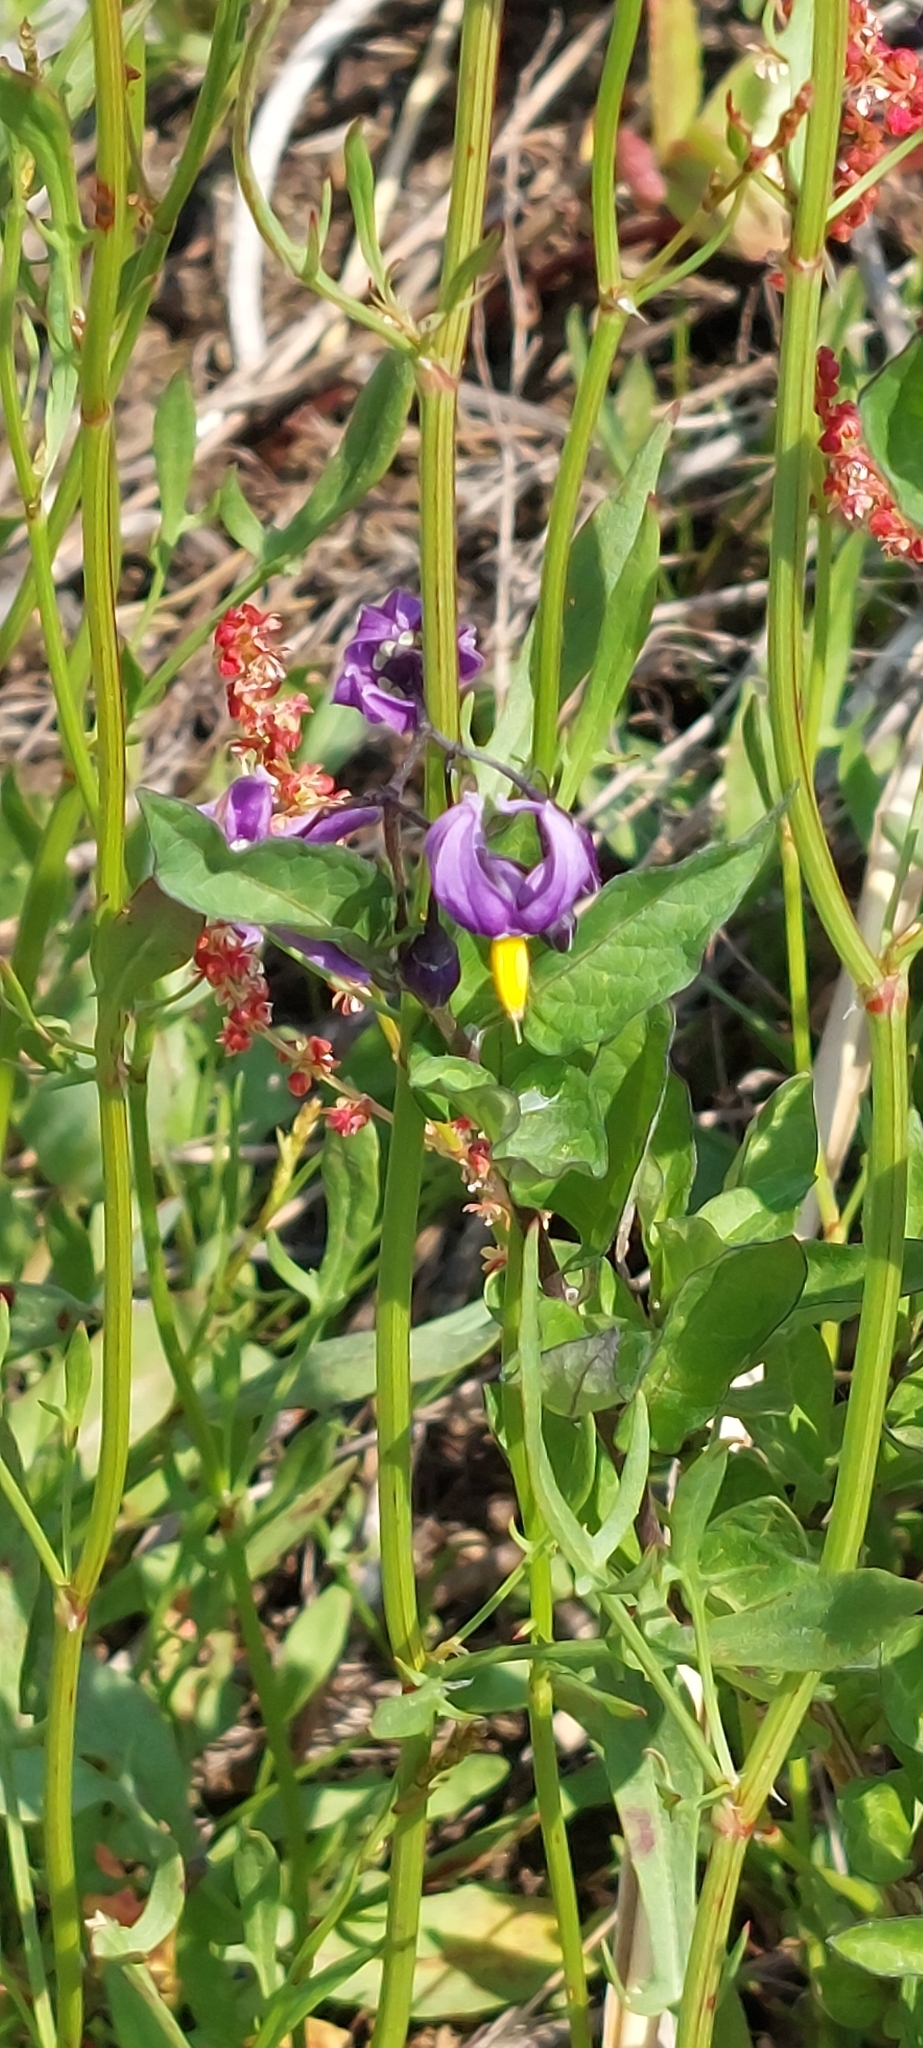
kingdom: Plantae
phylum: Tracheophyta
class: Magnoliopsida
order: Solanales
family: Solanaceae
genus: Solanum
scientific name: Solanum dulcamara
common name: Climbing nightshade
